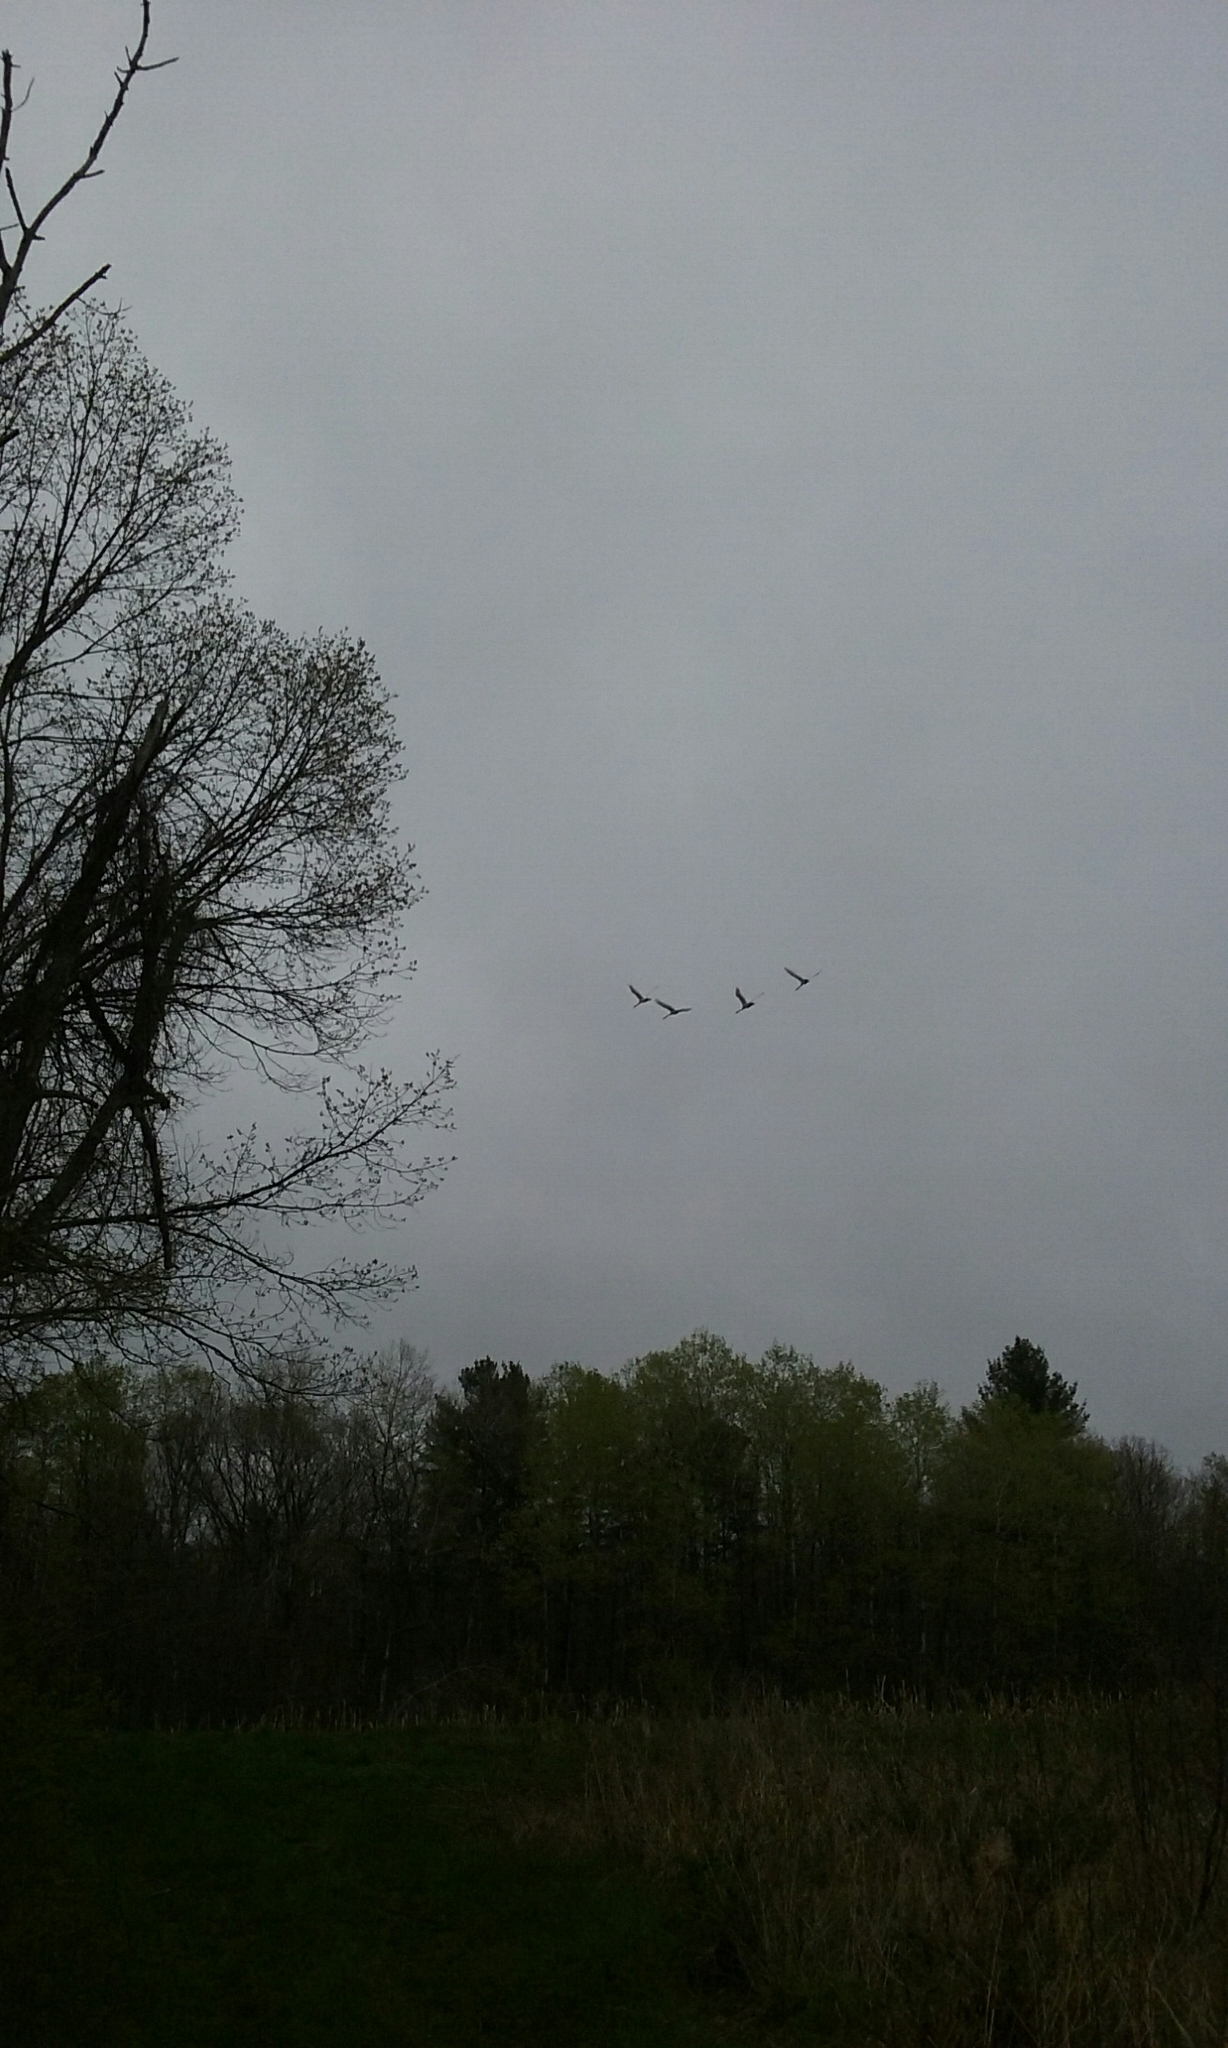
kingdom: Animalia
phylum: Chordata
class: Aves
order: Anseriformes
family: Anatidae
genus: Cygnus
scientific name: Cygnus olor
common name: Mute swan
